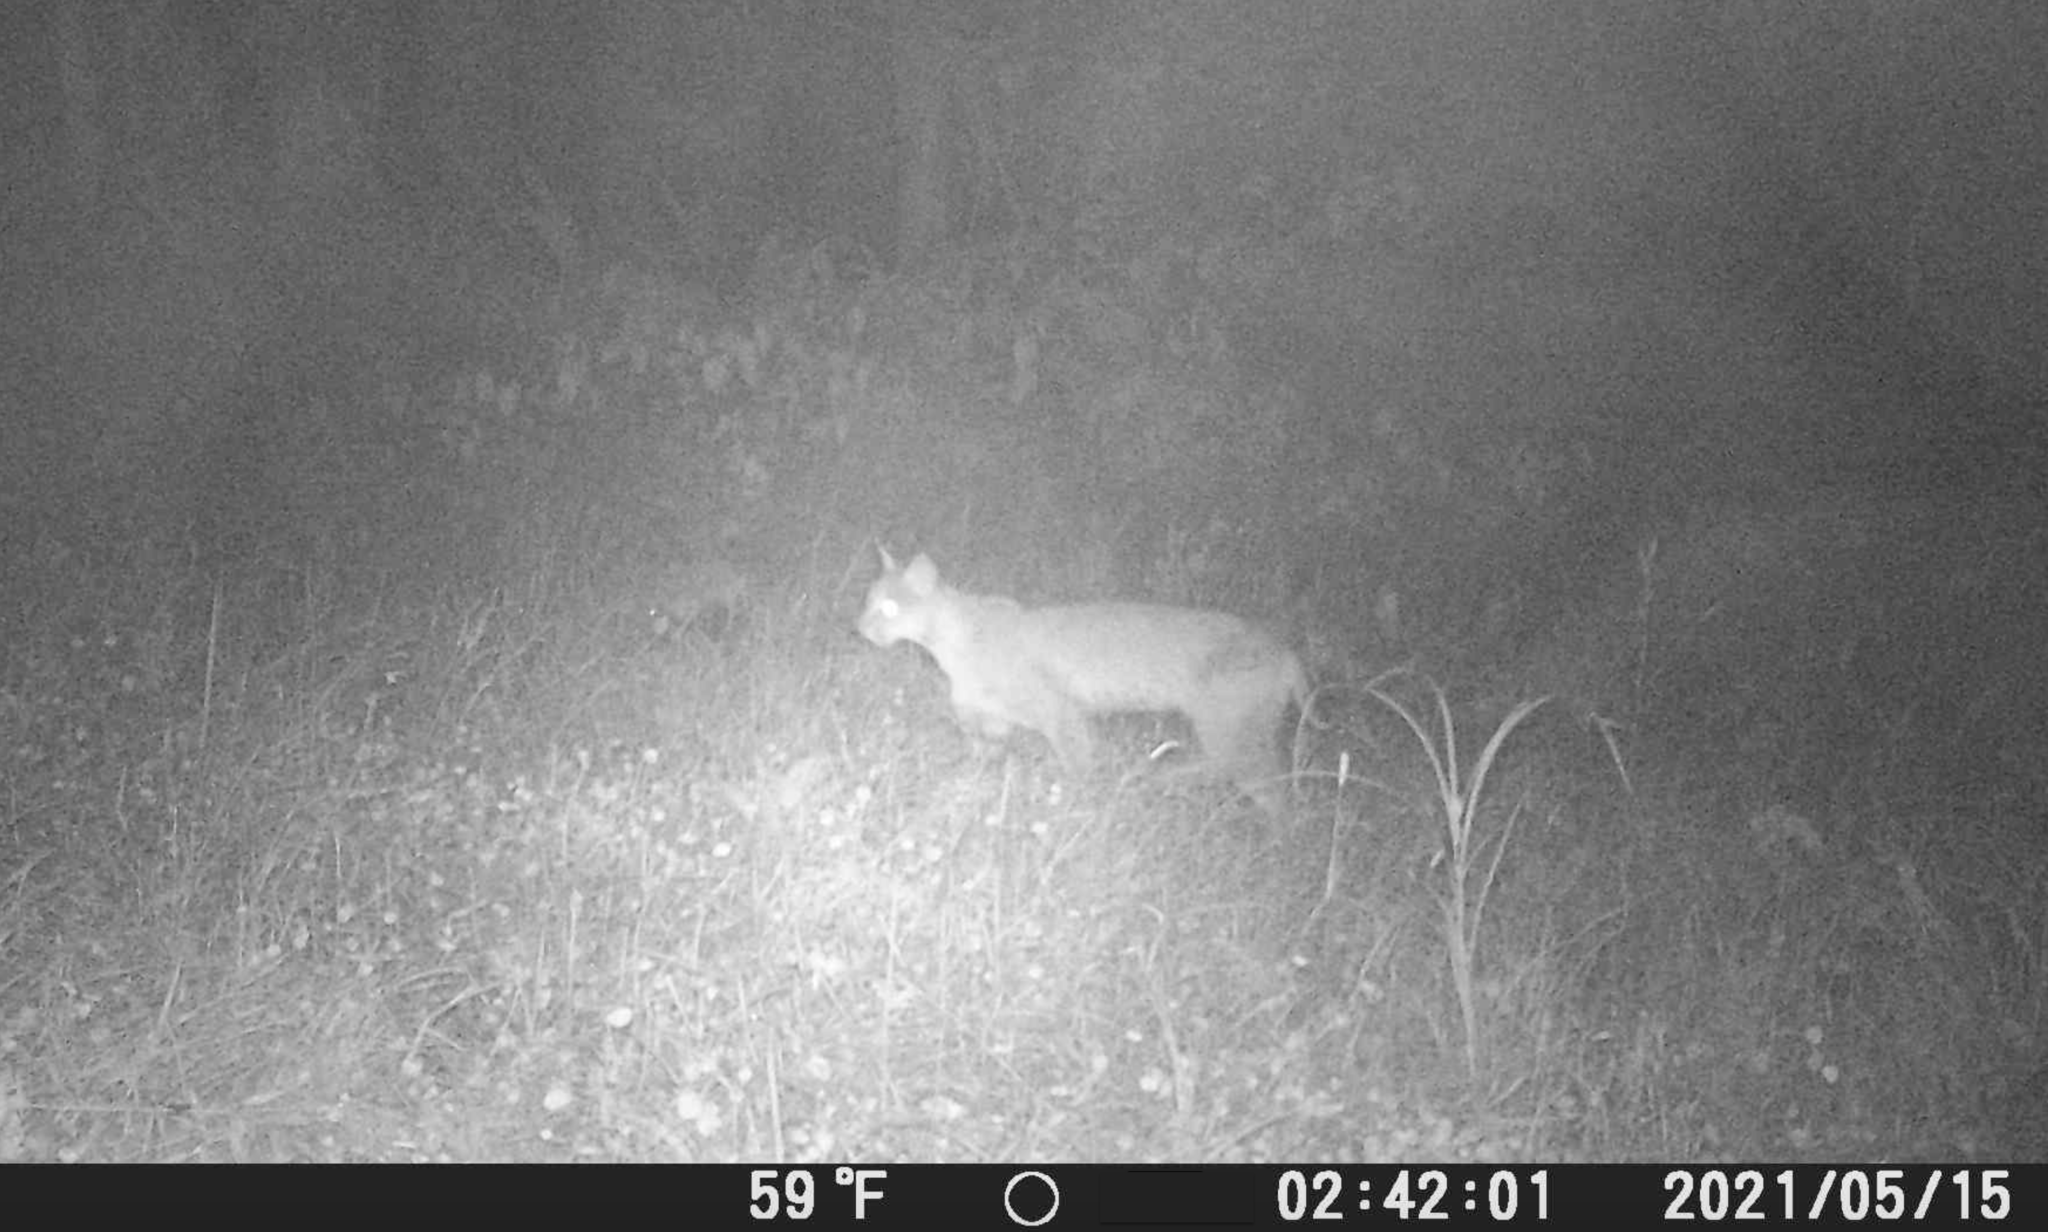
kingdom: Animalia
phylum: Chordata
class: Mammalia
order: Carnivora
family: Felidae
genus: Lynx
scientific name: Lynx rufus
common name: Bobcat
